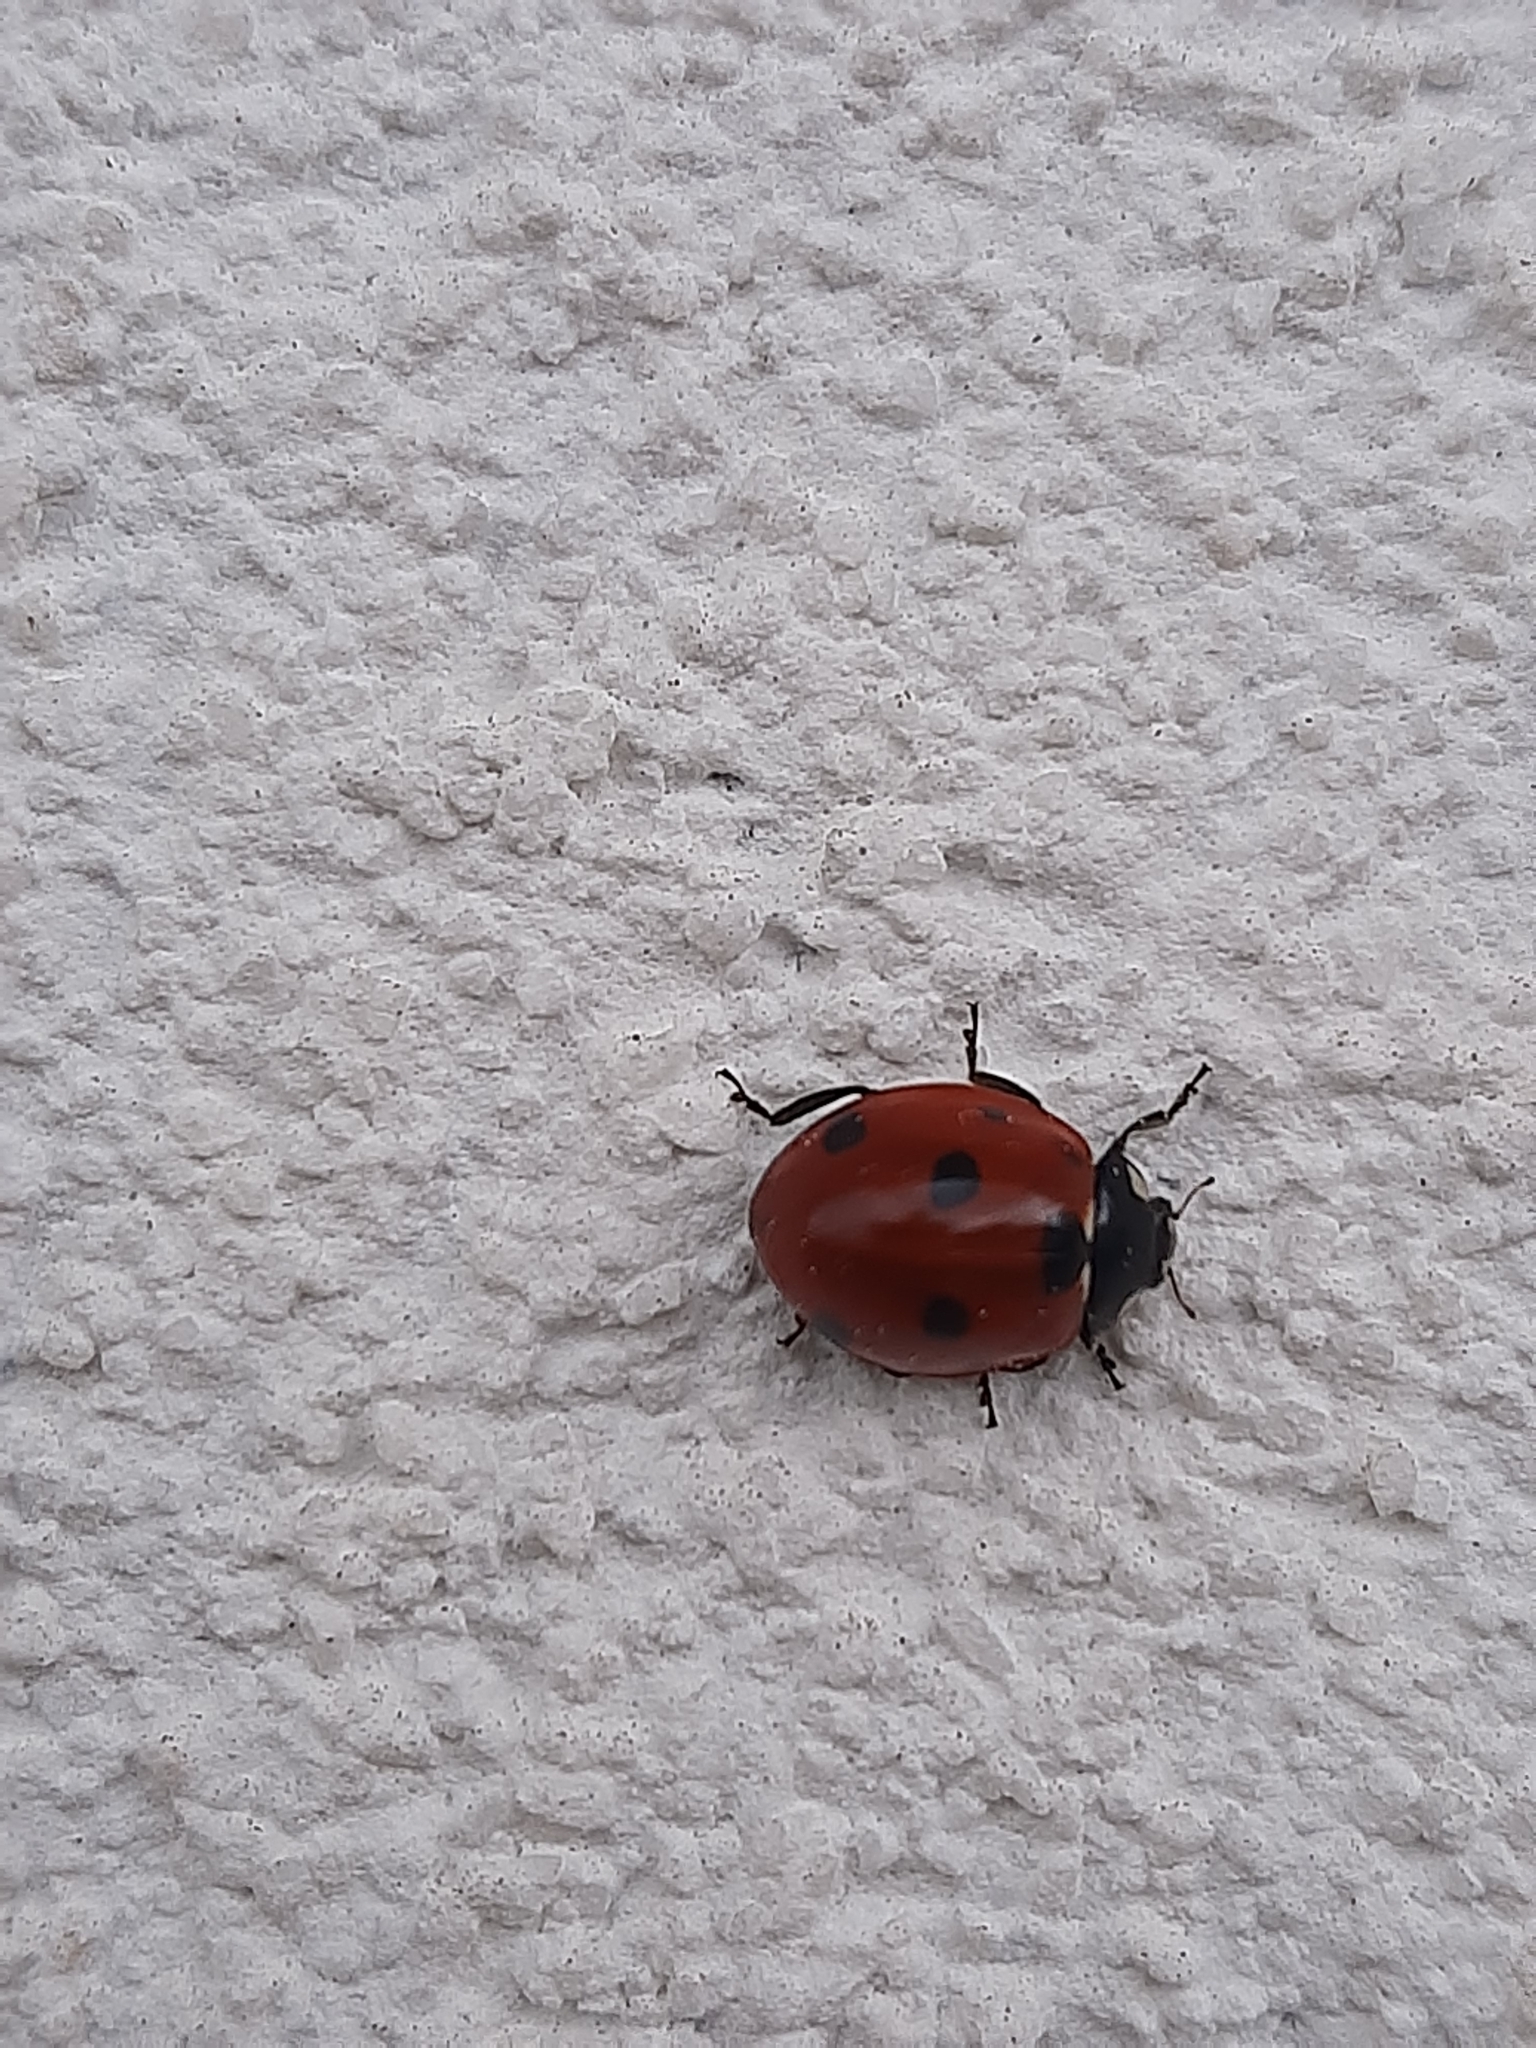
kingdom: Animalia
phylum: Arthropoda
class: Insecta
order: Coleoptera
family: Coccinellidae
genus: Coccinella
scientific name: Coccinella septempunctata
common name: Sevenspotted lady beetle
